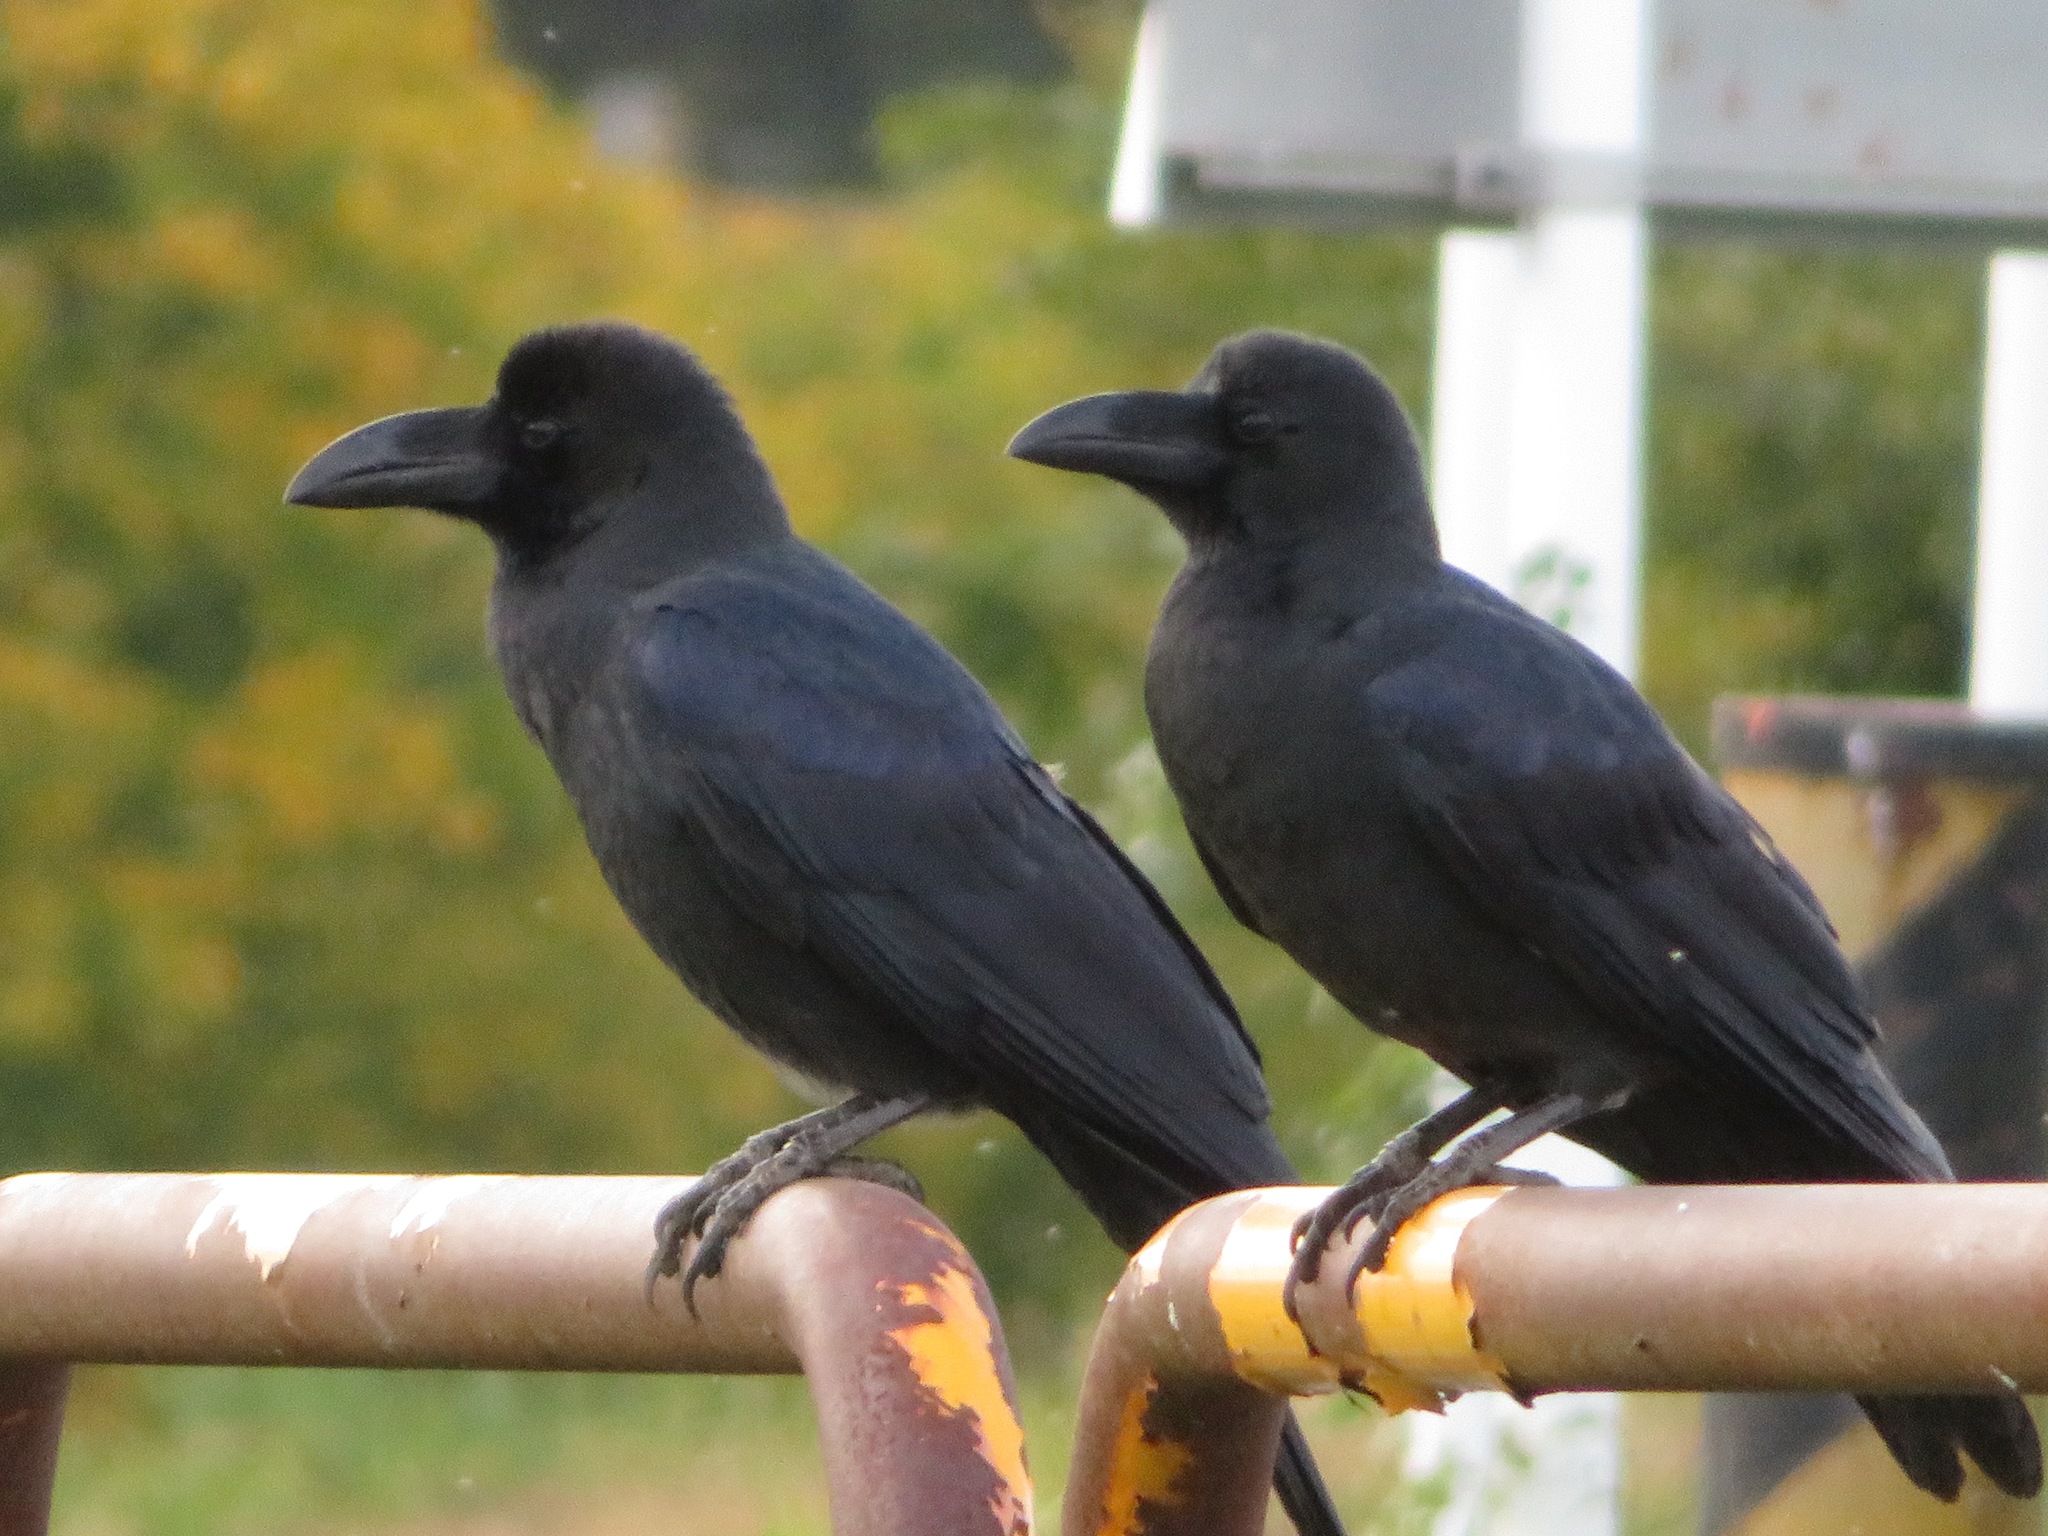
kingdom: Animalia
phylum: Chordata
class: Aves
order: Passeriformes
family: Corvidae
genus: Corvus
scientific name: Corvus macrorhynchos
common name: Large-billed crow
